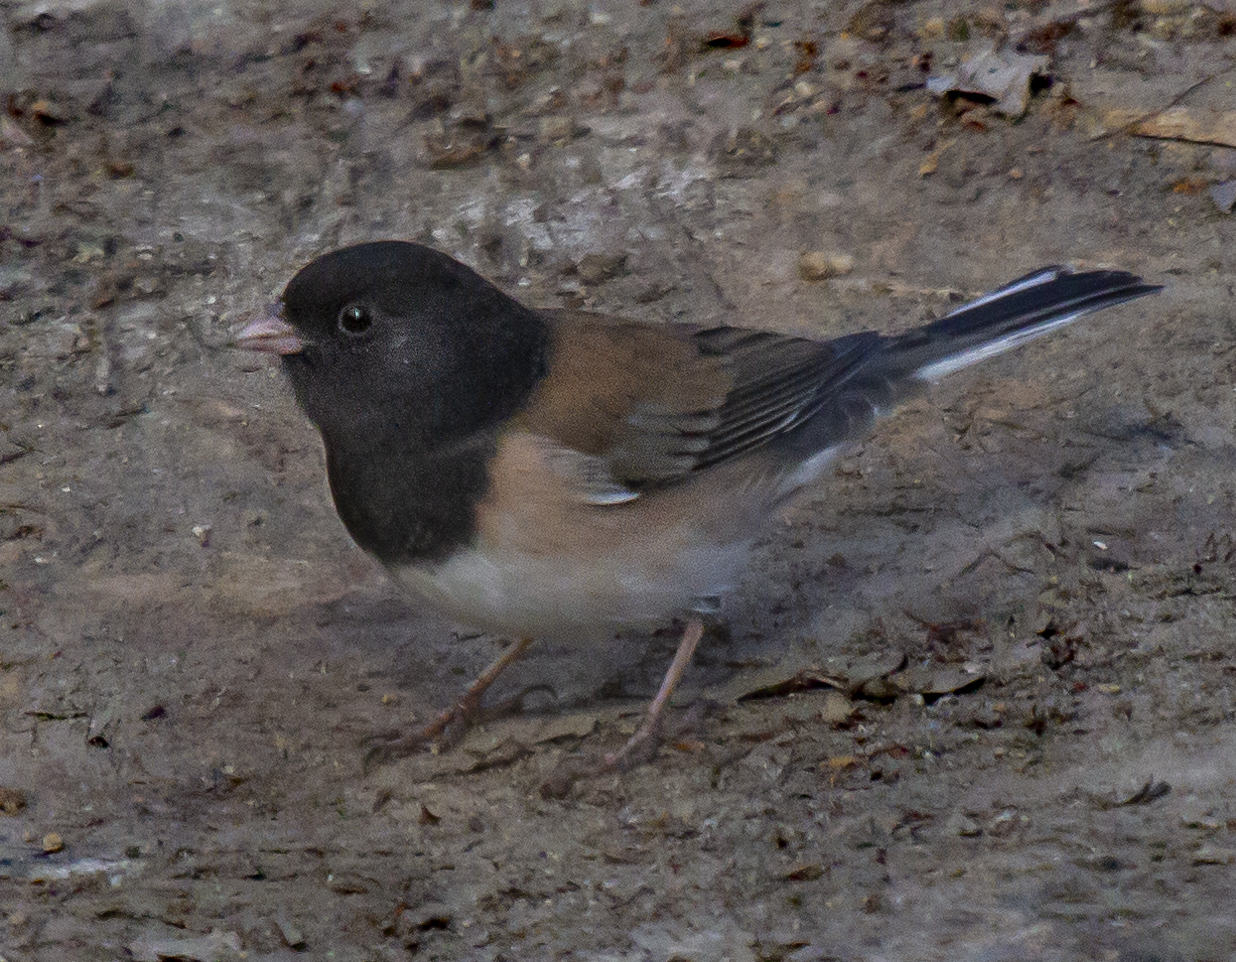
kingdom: Animalia
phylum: Chordata
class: Aves
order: Passeriformes
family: Passerellidae
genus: Junco
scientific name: Junco hyemalis
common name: Dark-eyed junco
